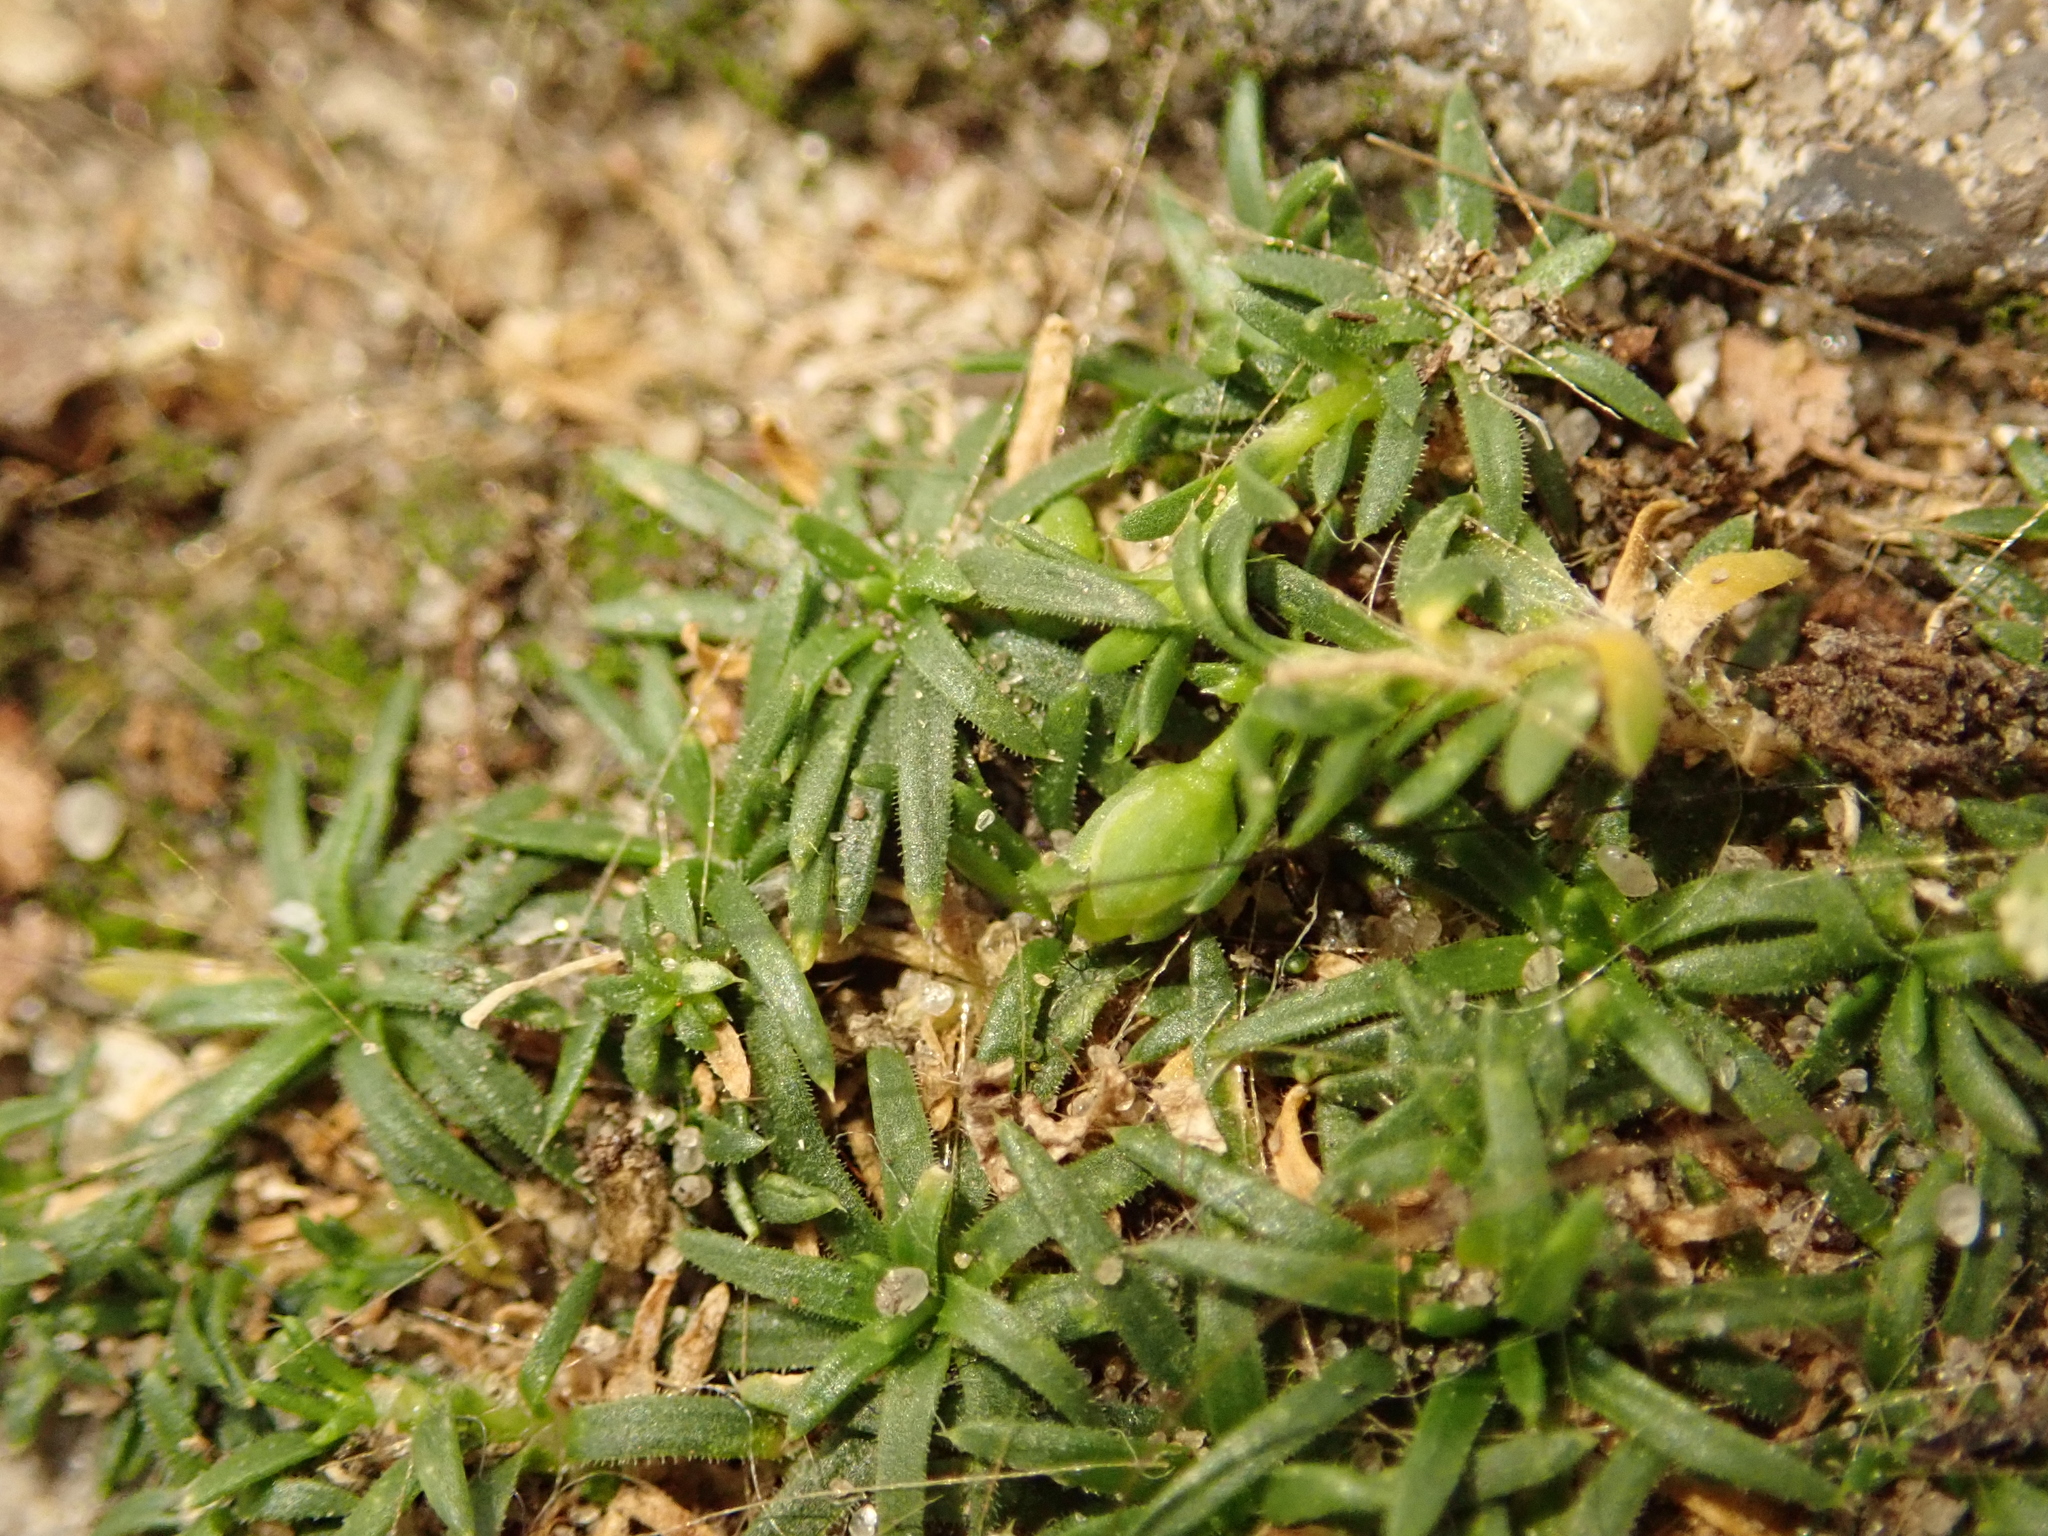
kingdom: Plantae
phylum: Tracheophyta
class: Magnoliopsida
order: Caryophyllales
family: Caryophyllaceae
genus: Sagina
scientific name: Sagina procumbens
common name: Procumbent pearlwort
